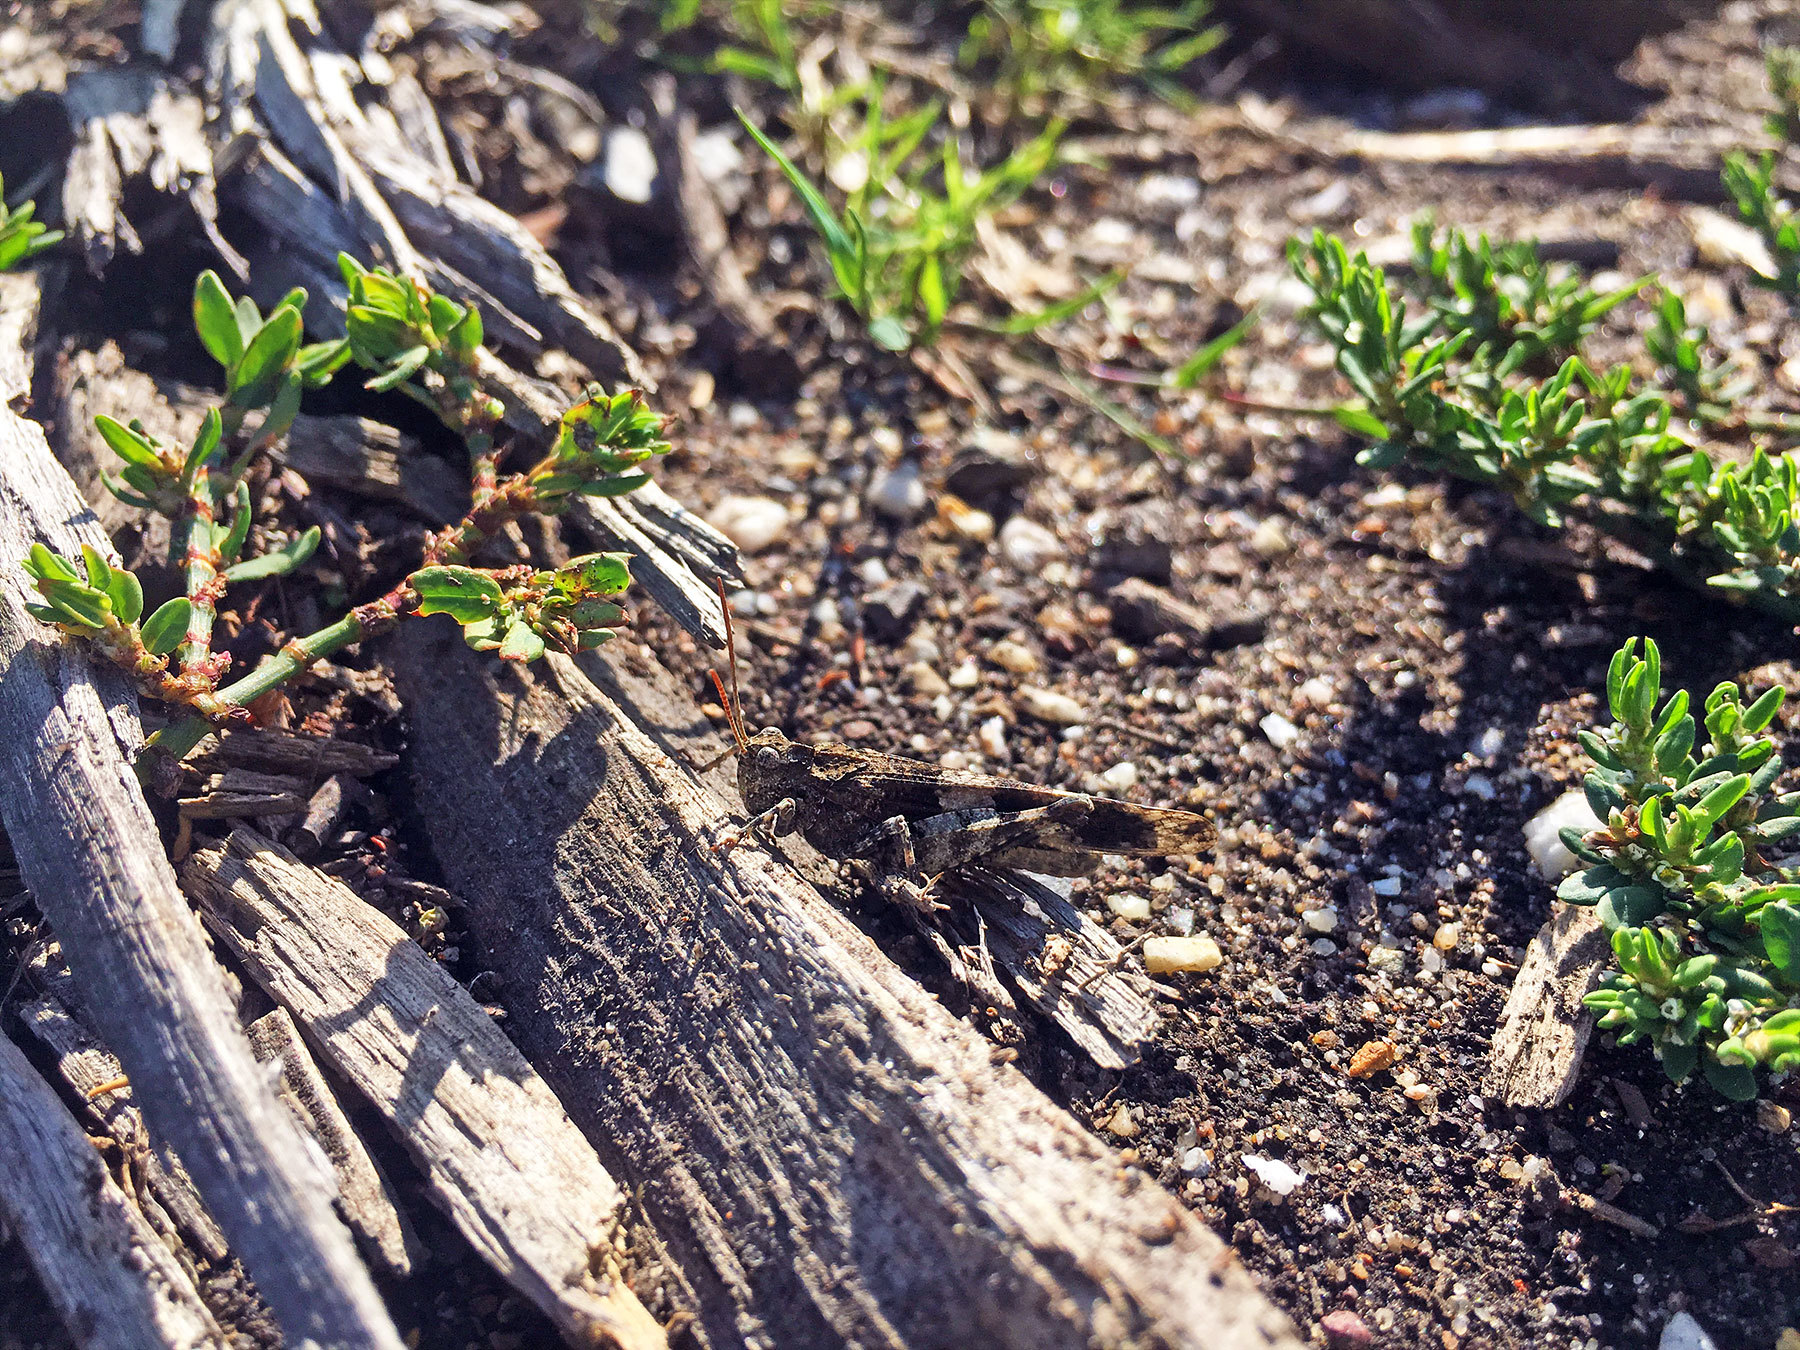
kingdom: Animalia
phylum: Arthropoda
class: Insecta
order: Orthoptera
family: Acrididae
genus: Oedipoda
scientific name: Oedipoda caerulescens
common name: Blue-winged grasshopper
